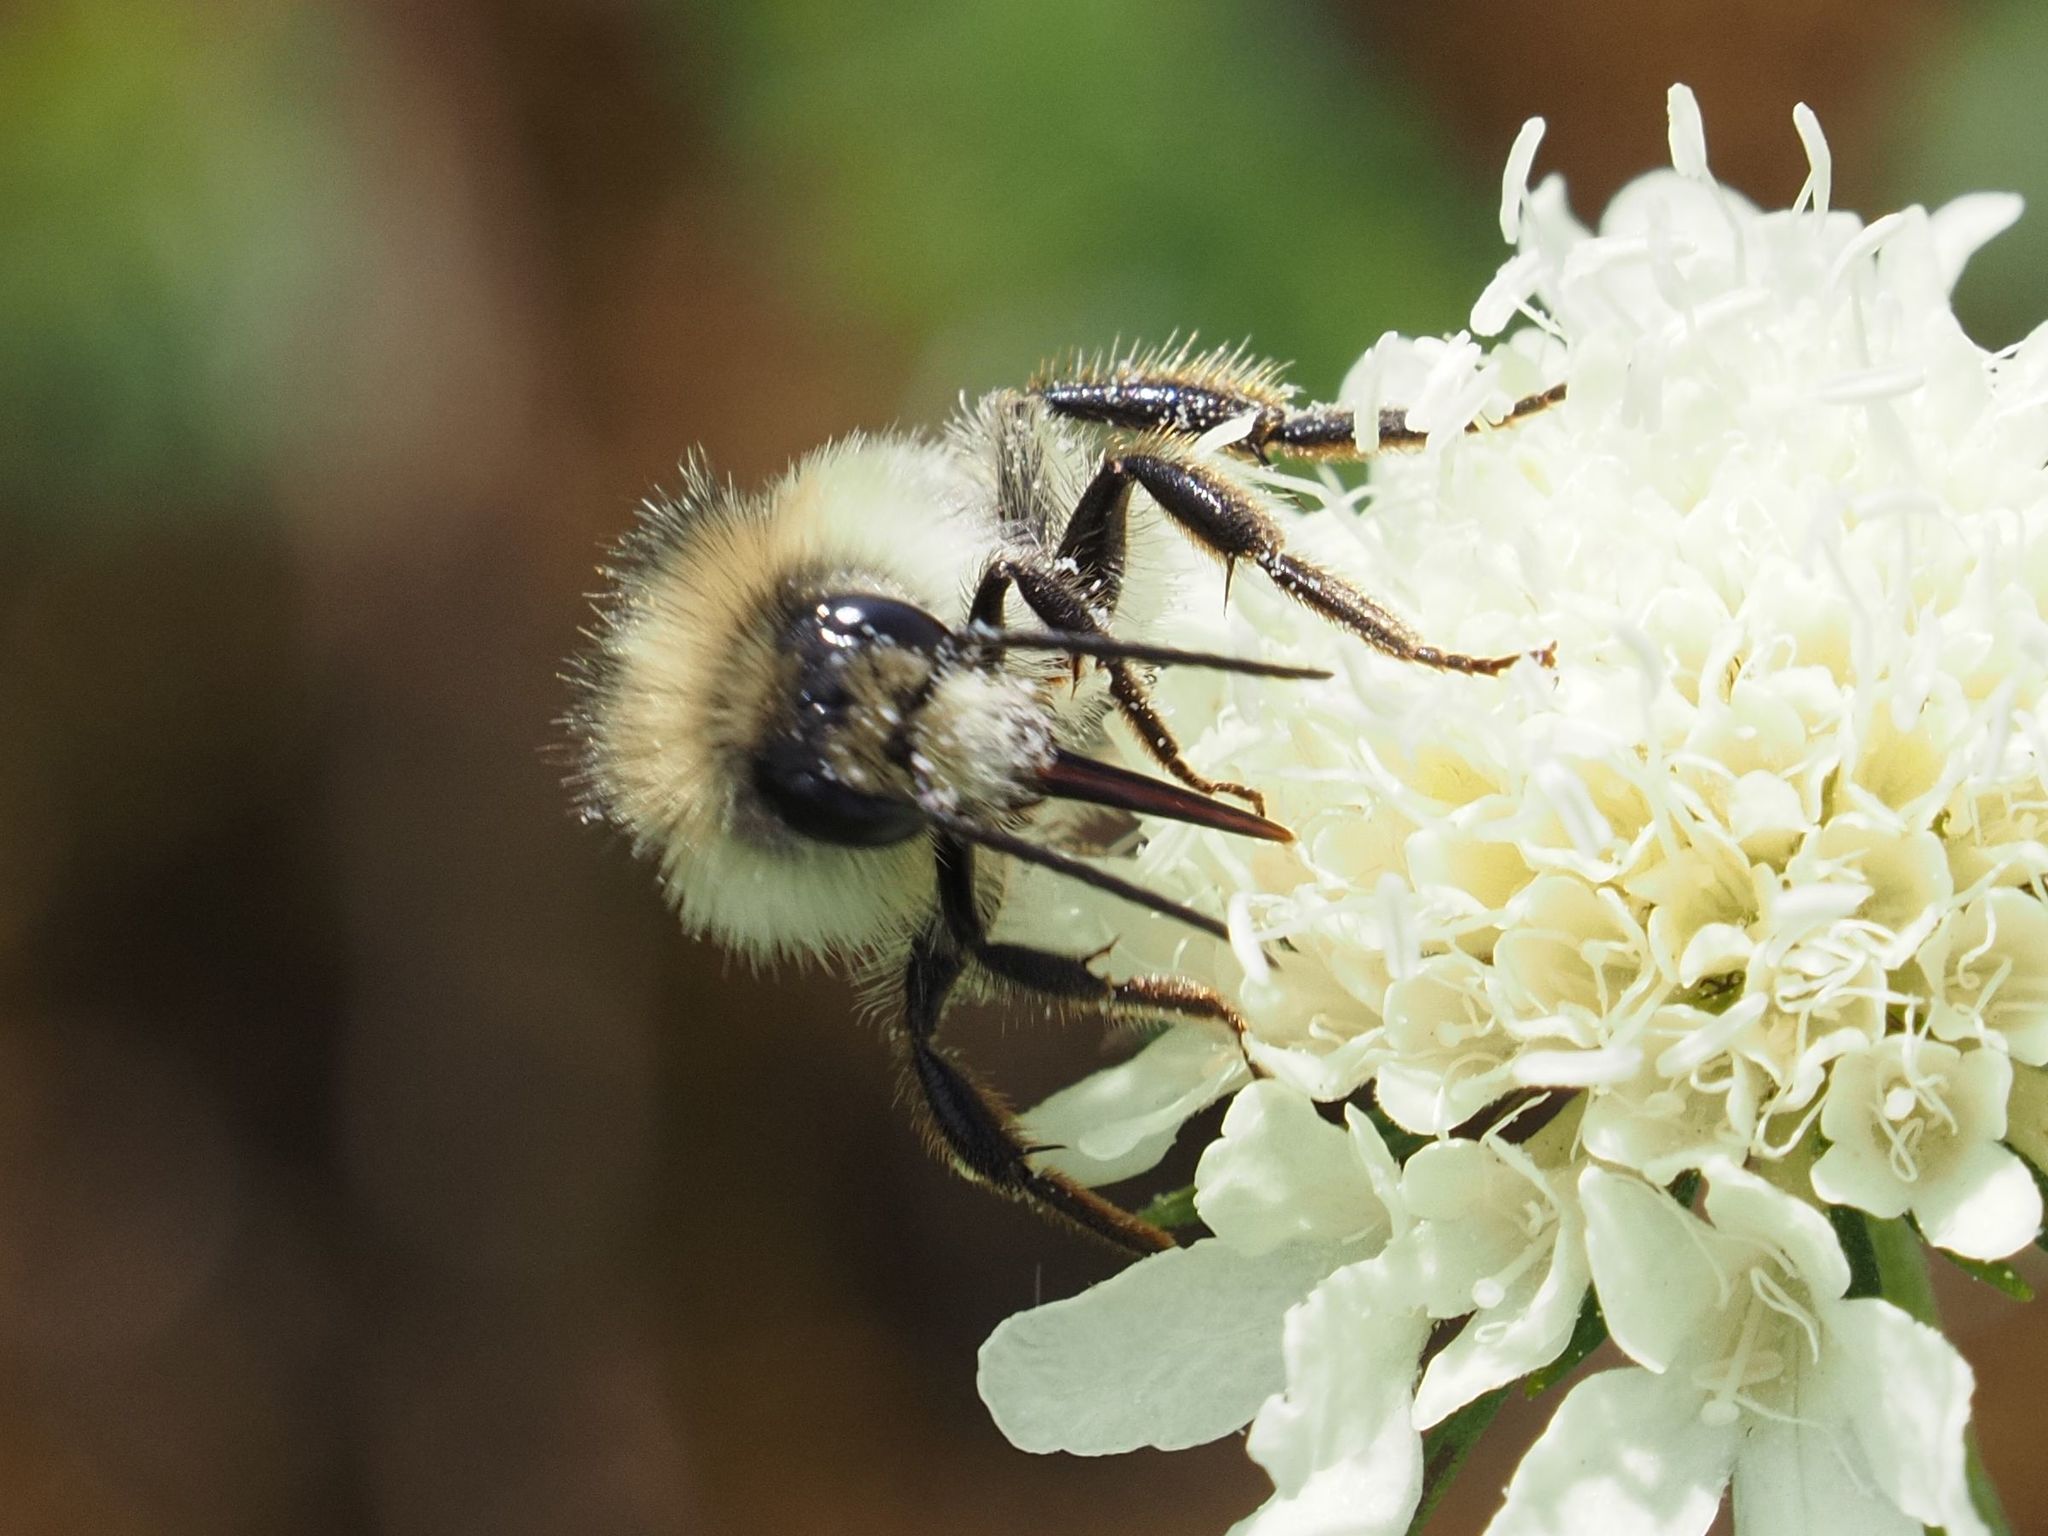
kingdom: Animalia
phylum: Arthropoda
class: Insecta
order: Hymenoptera
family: Apidae
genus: Bombus
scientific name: Bombus sylvarum
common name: Shrill carder bee
